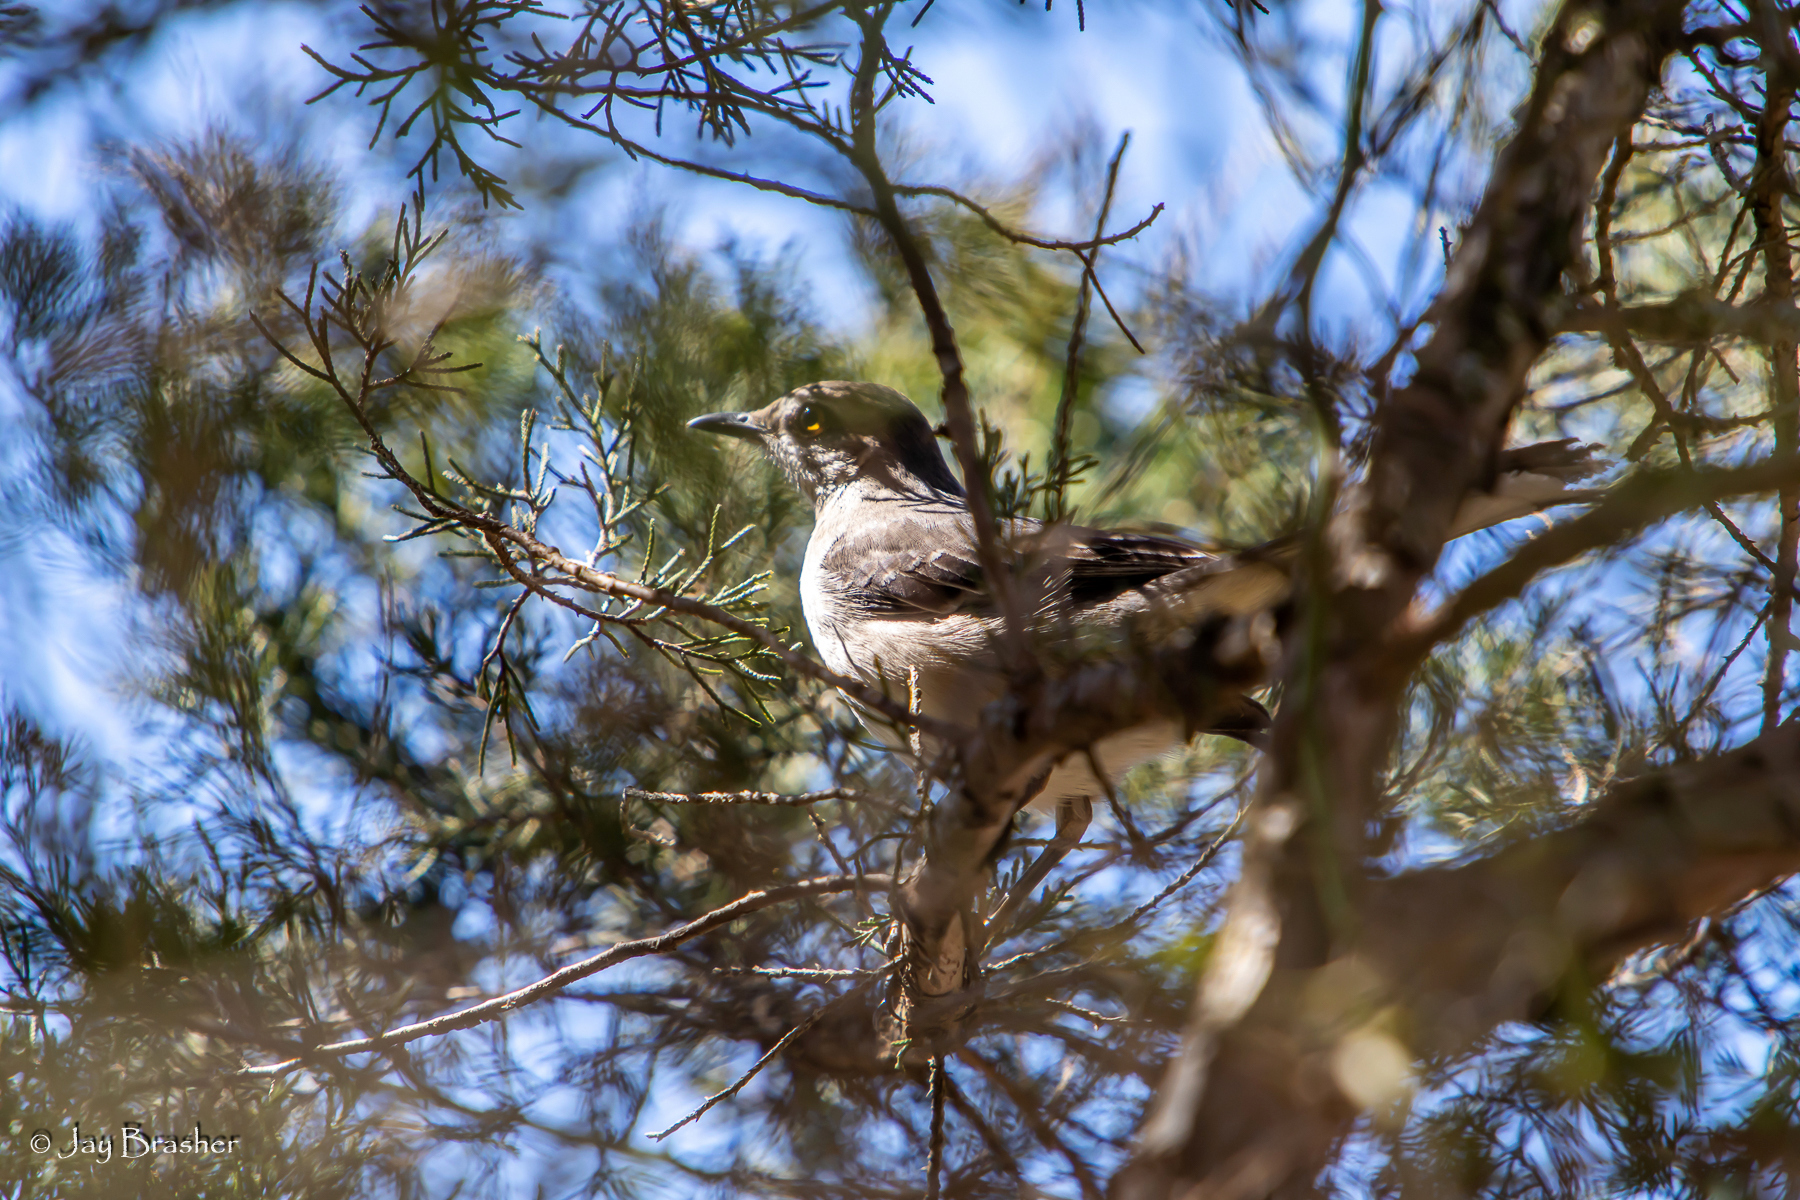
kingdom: Animalia
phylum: Chordata
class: Aves
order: Passeriformes
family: Mimidae
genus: Mimus
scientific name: Mimus polyglottos
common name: Northern mockingbird
